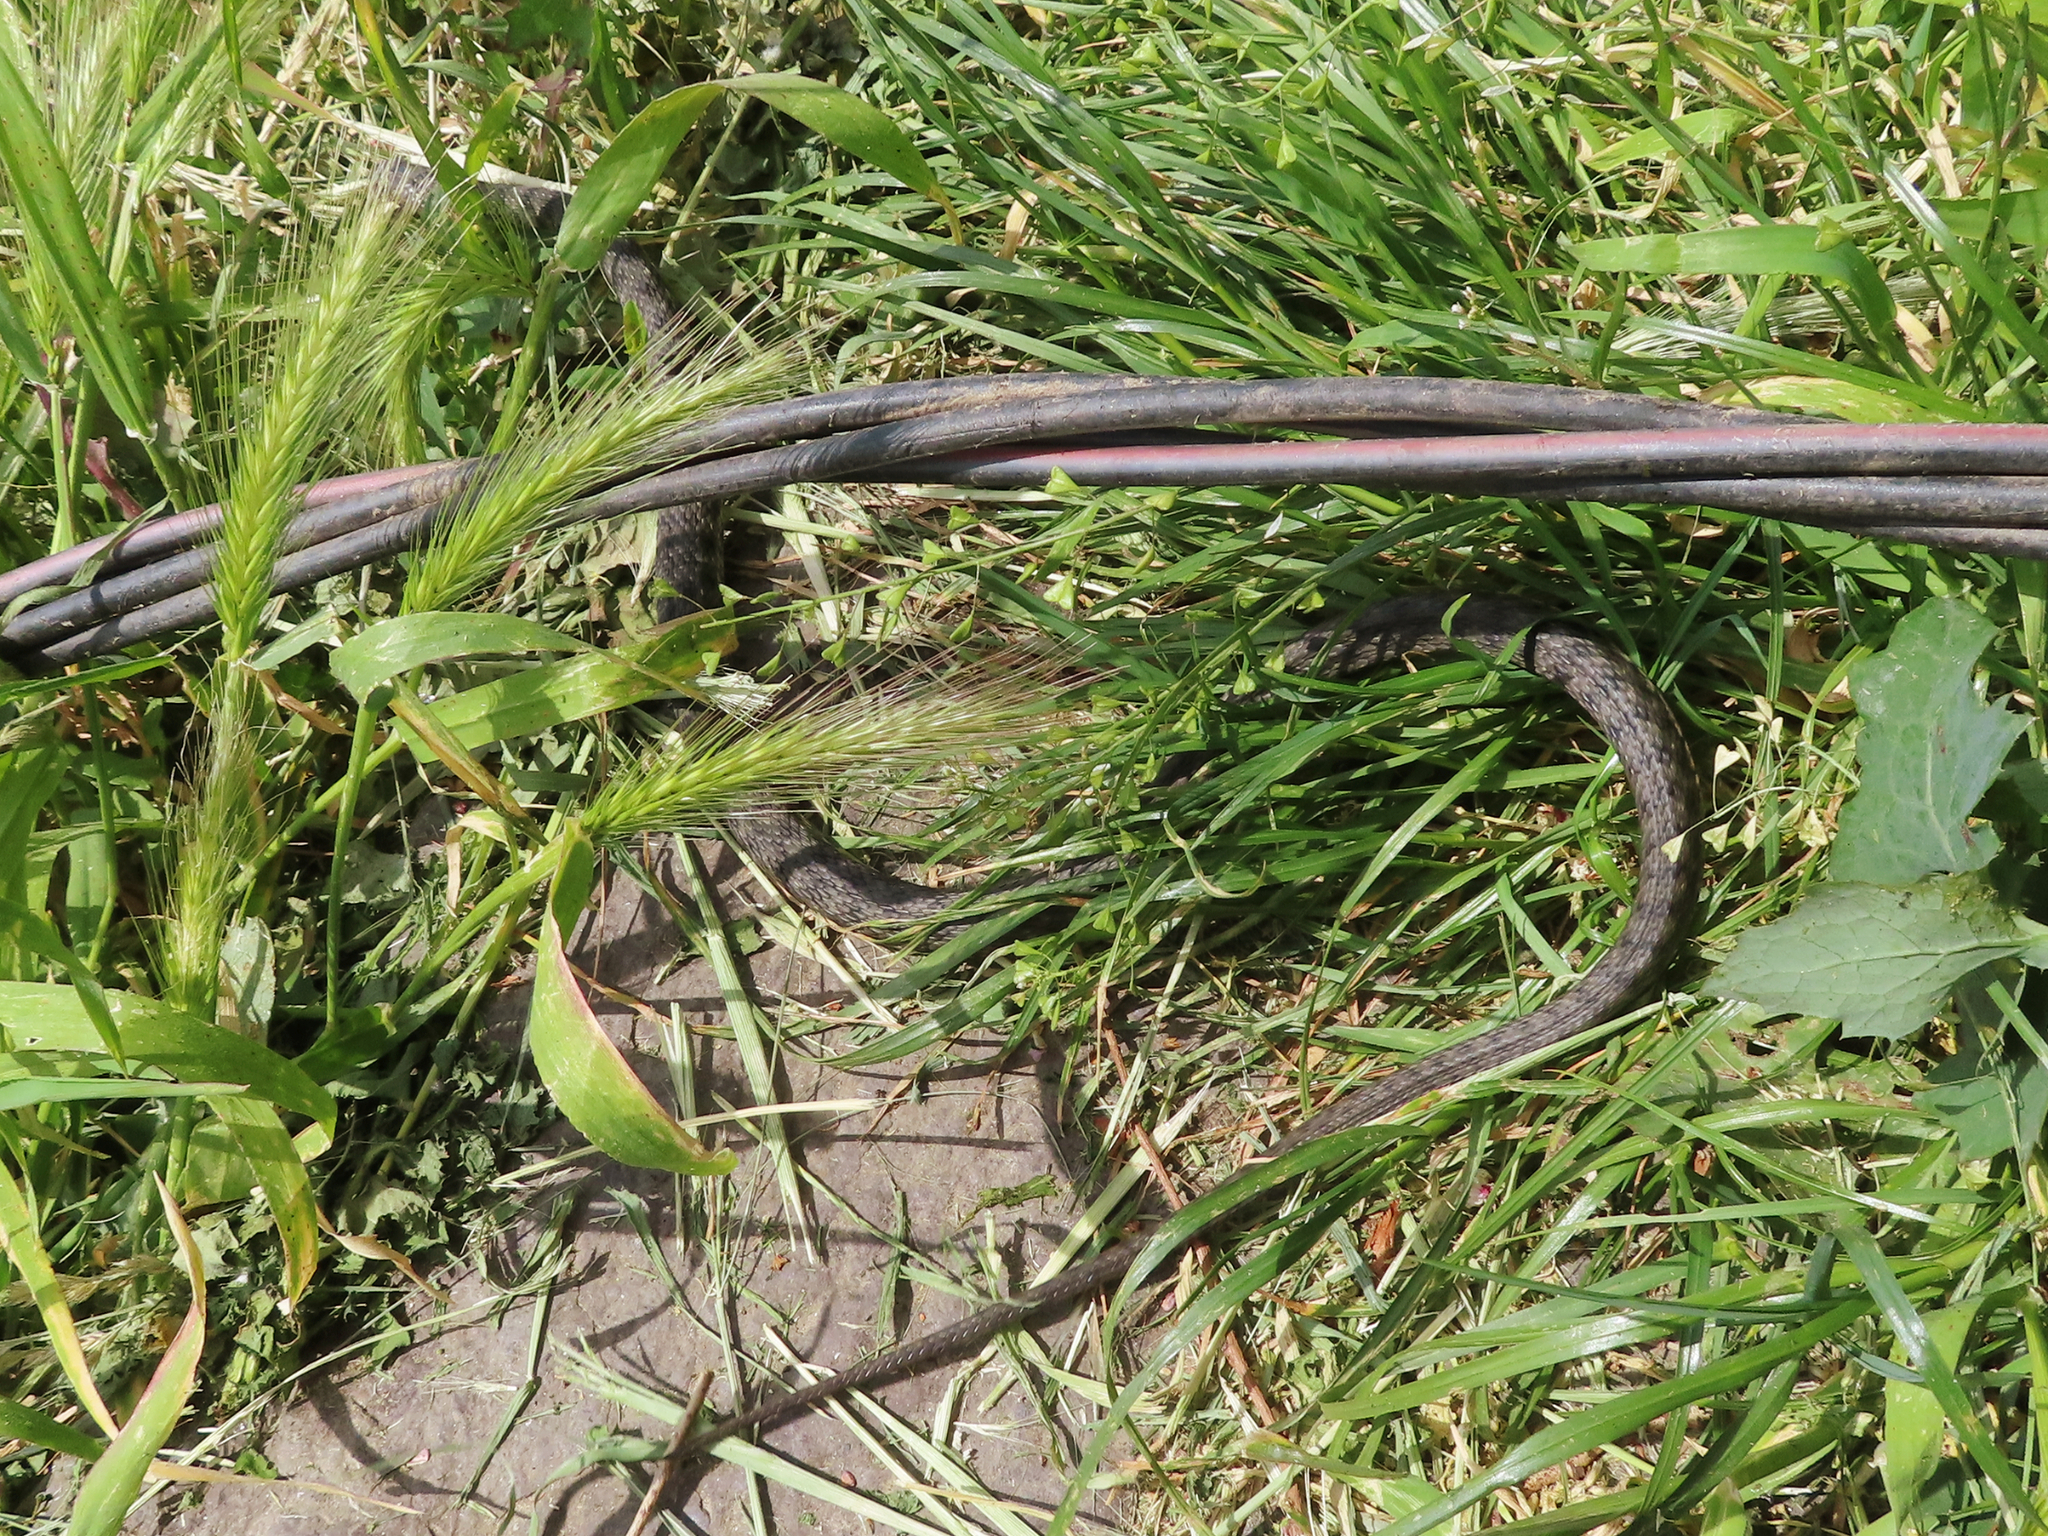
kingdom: Animalia
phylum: Chordata
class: Squamata
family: Colubridae
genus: Natrix
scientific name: Natrix tessellata
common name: Dice snake
